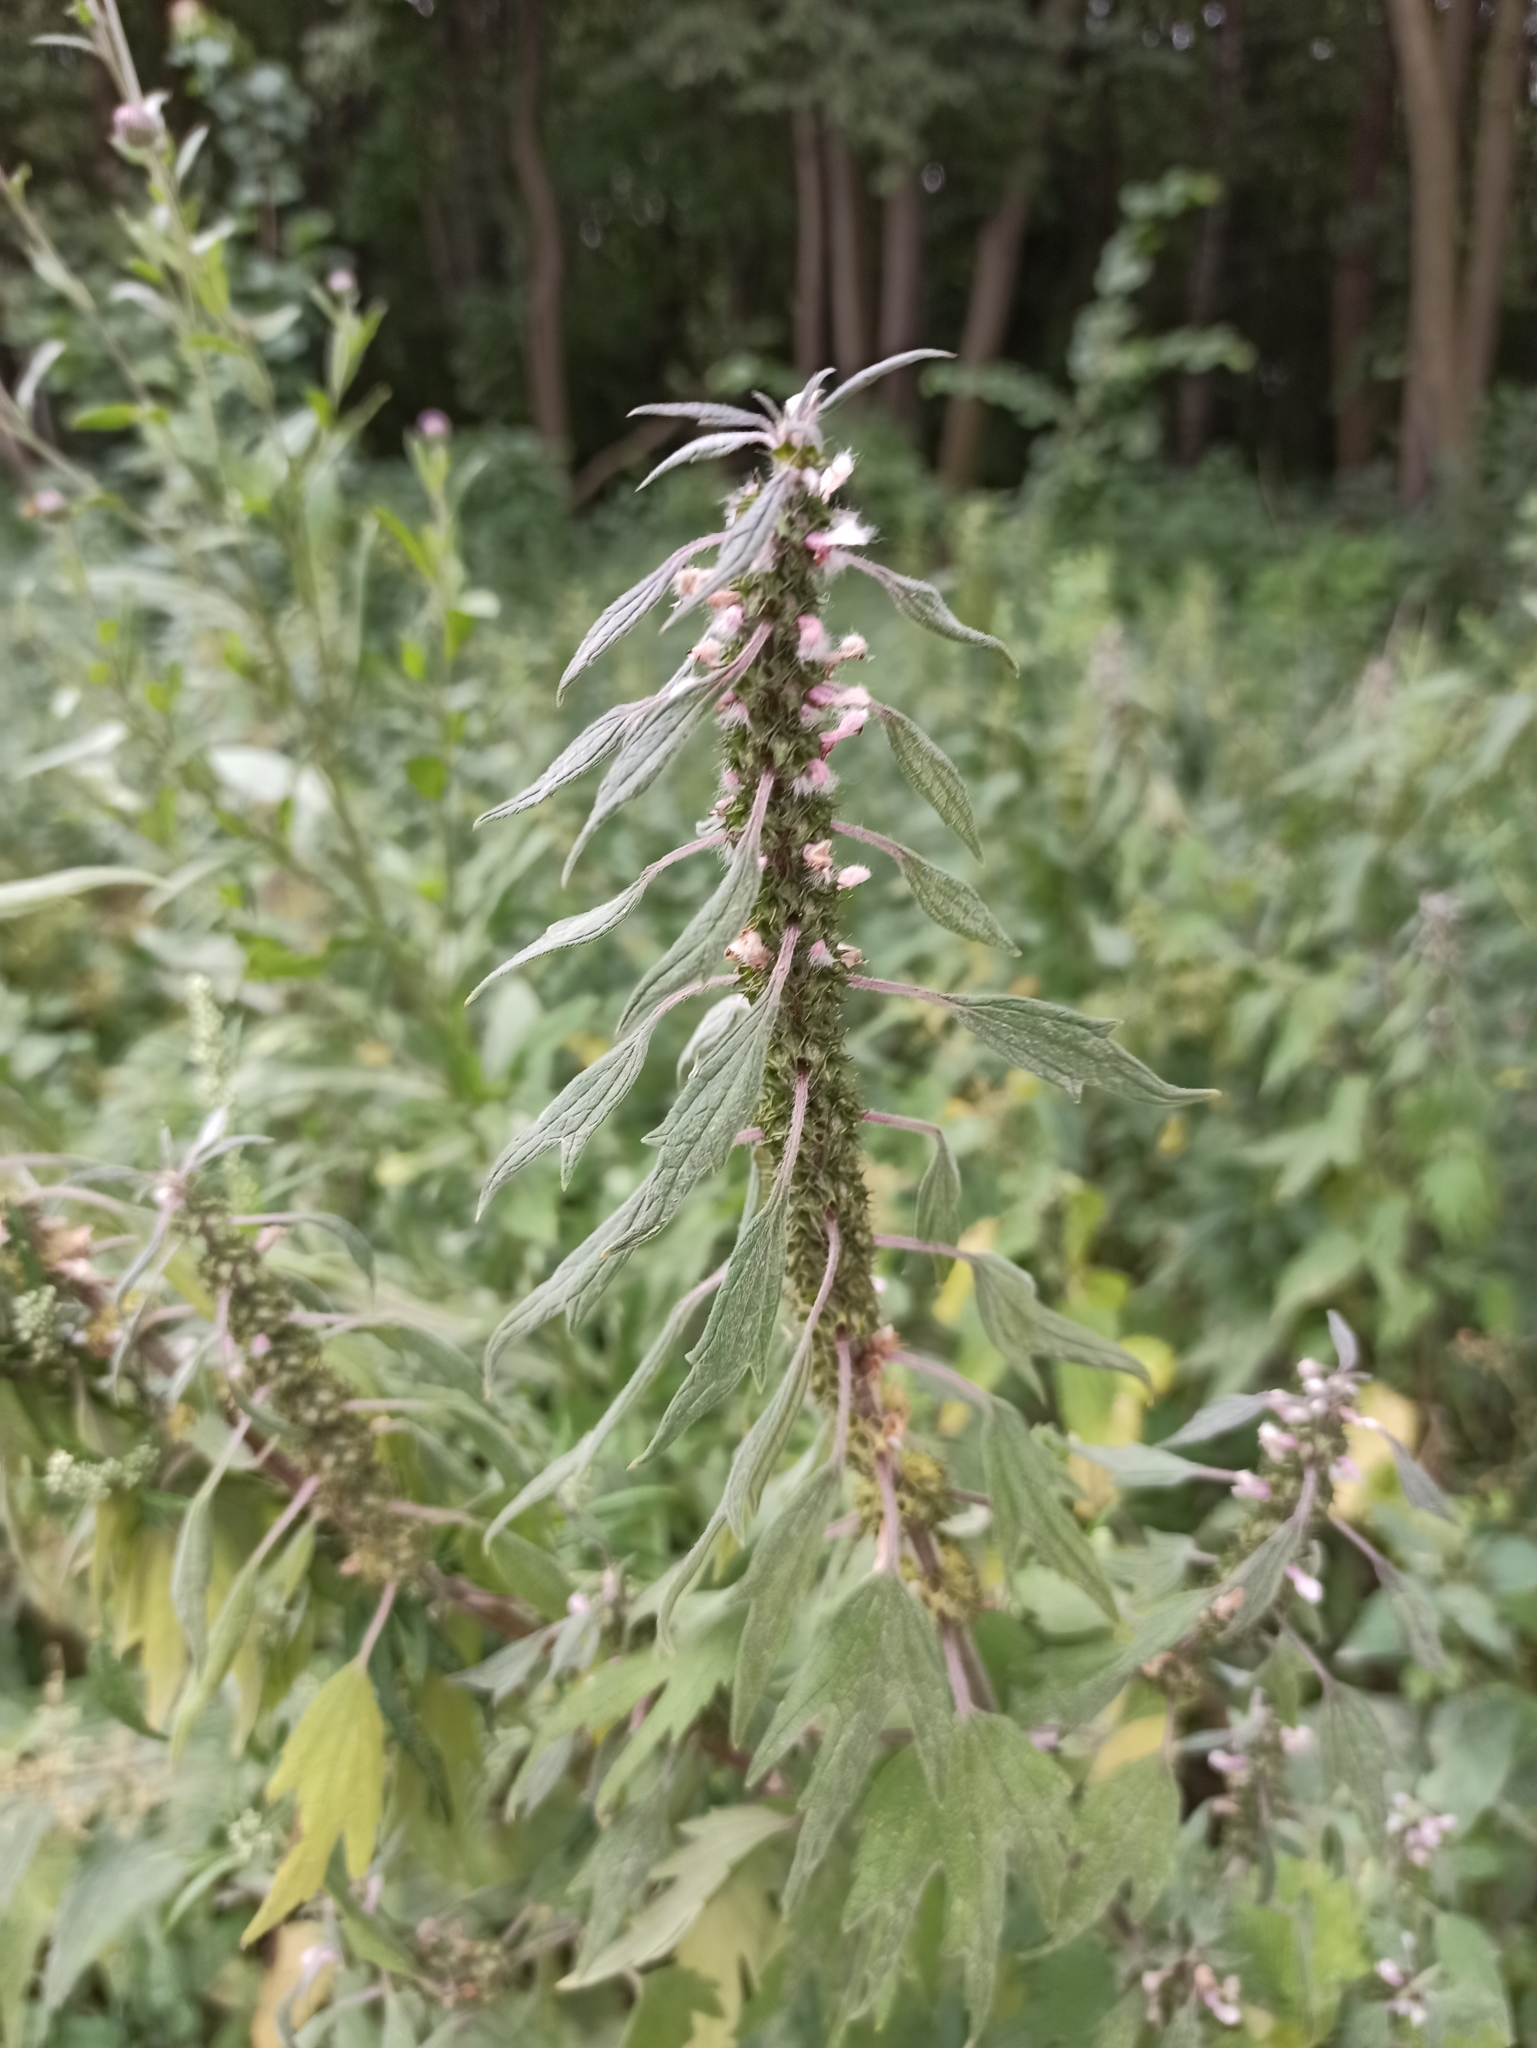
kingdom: Plantae
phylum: Tracheophyta
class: Magnoliopsida
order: Lamiales
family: Lamiaceae
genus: Leonurus
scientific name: Leonurus quinquelobatus
